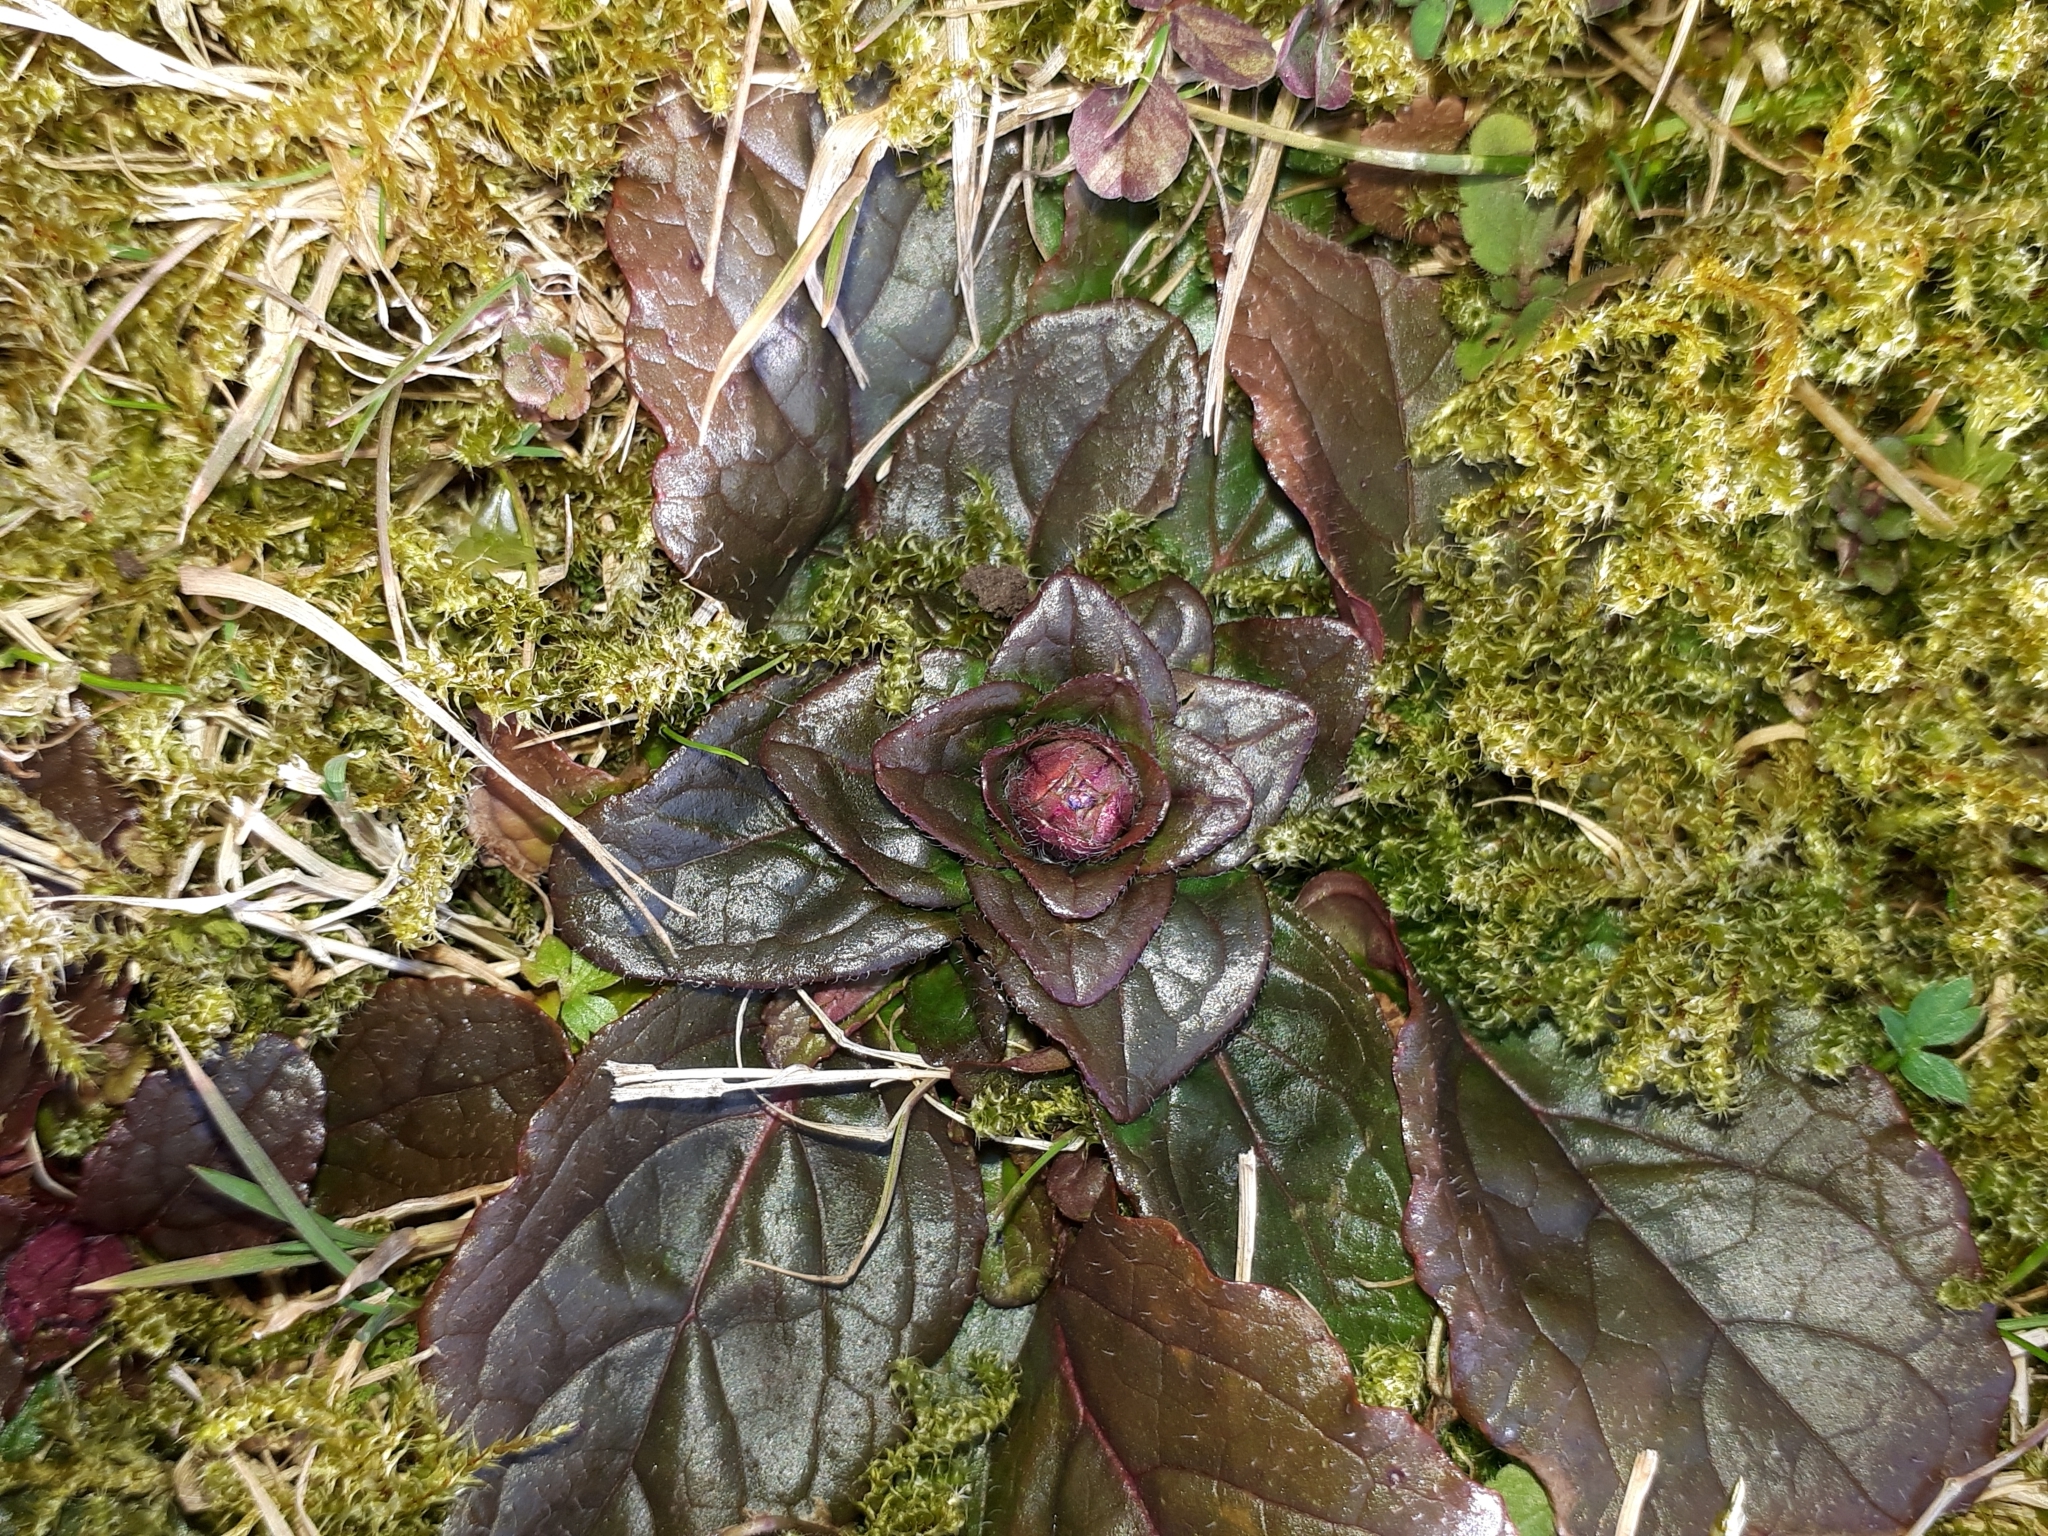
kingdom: Plantae
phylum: Tracheophyta
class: Magnoliopsida
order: Lamiales
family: Lamiaceae
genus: Ajuga
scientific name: Ajuga reptans
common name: Bugle
